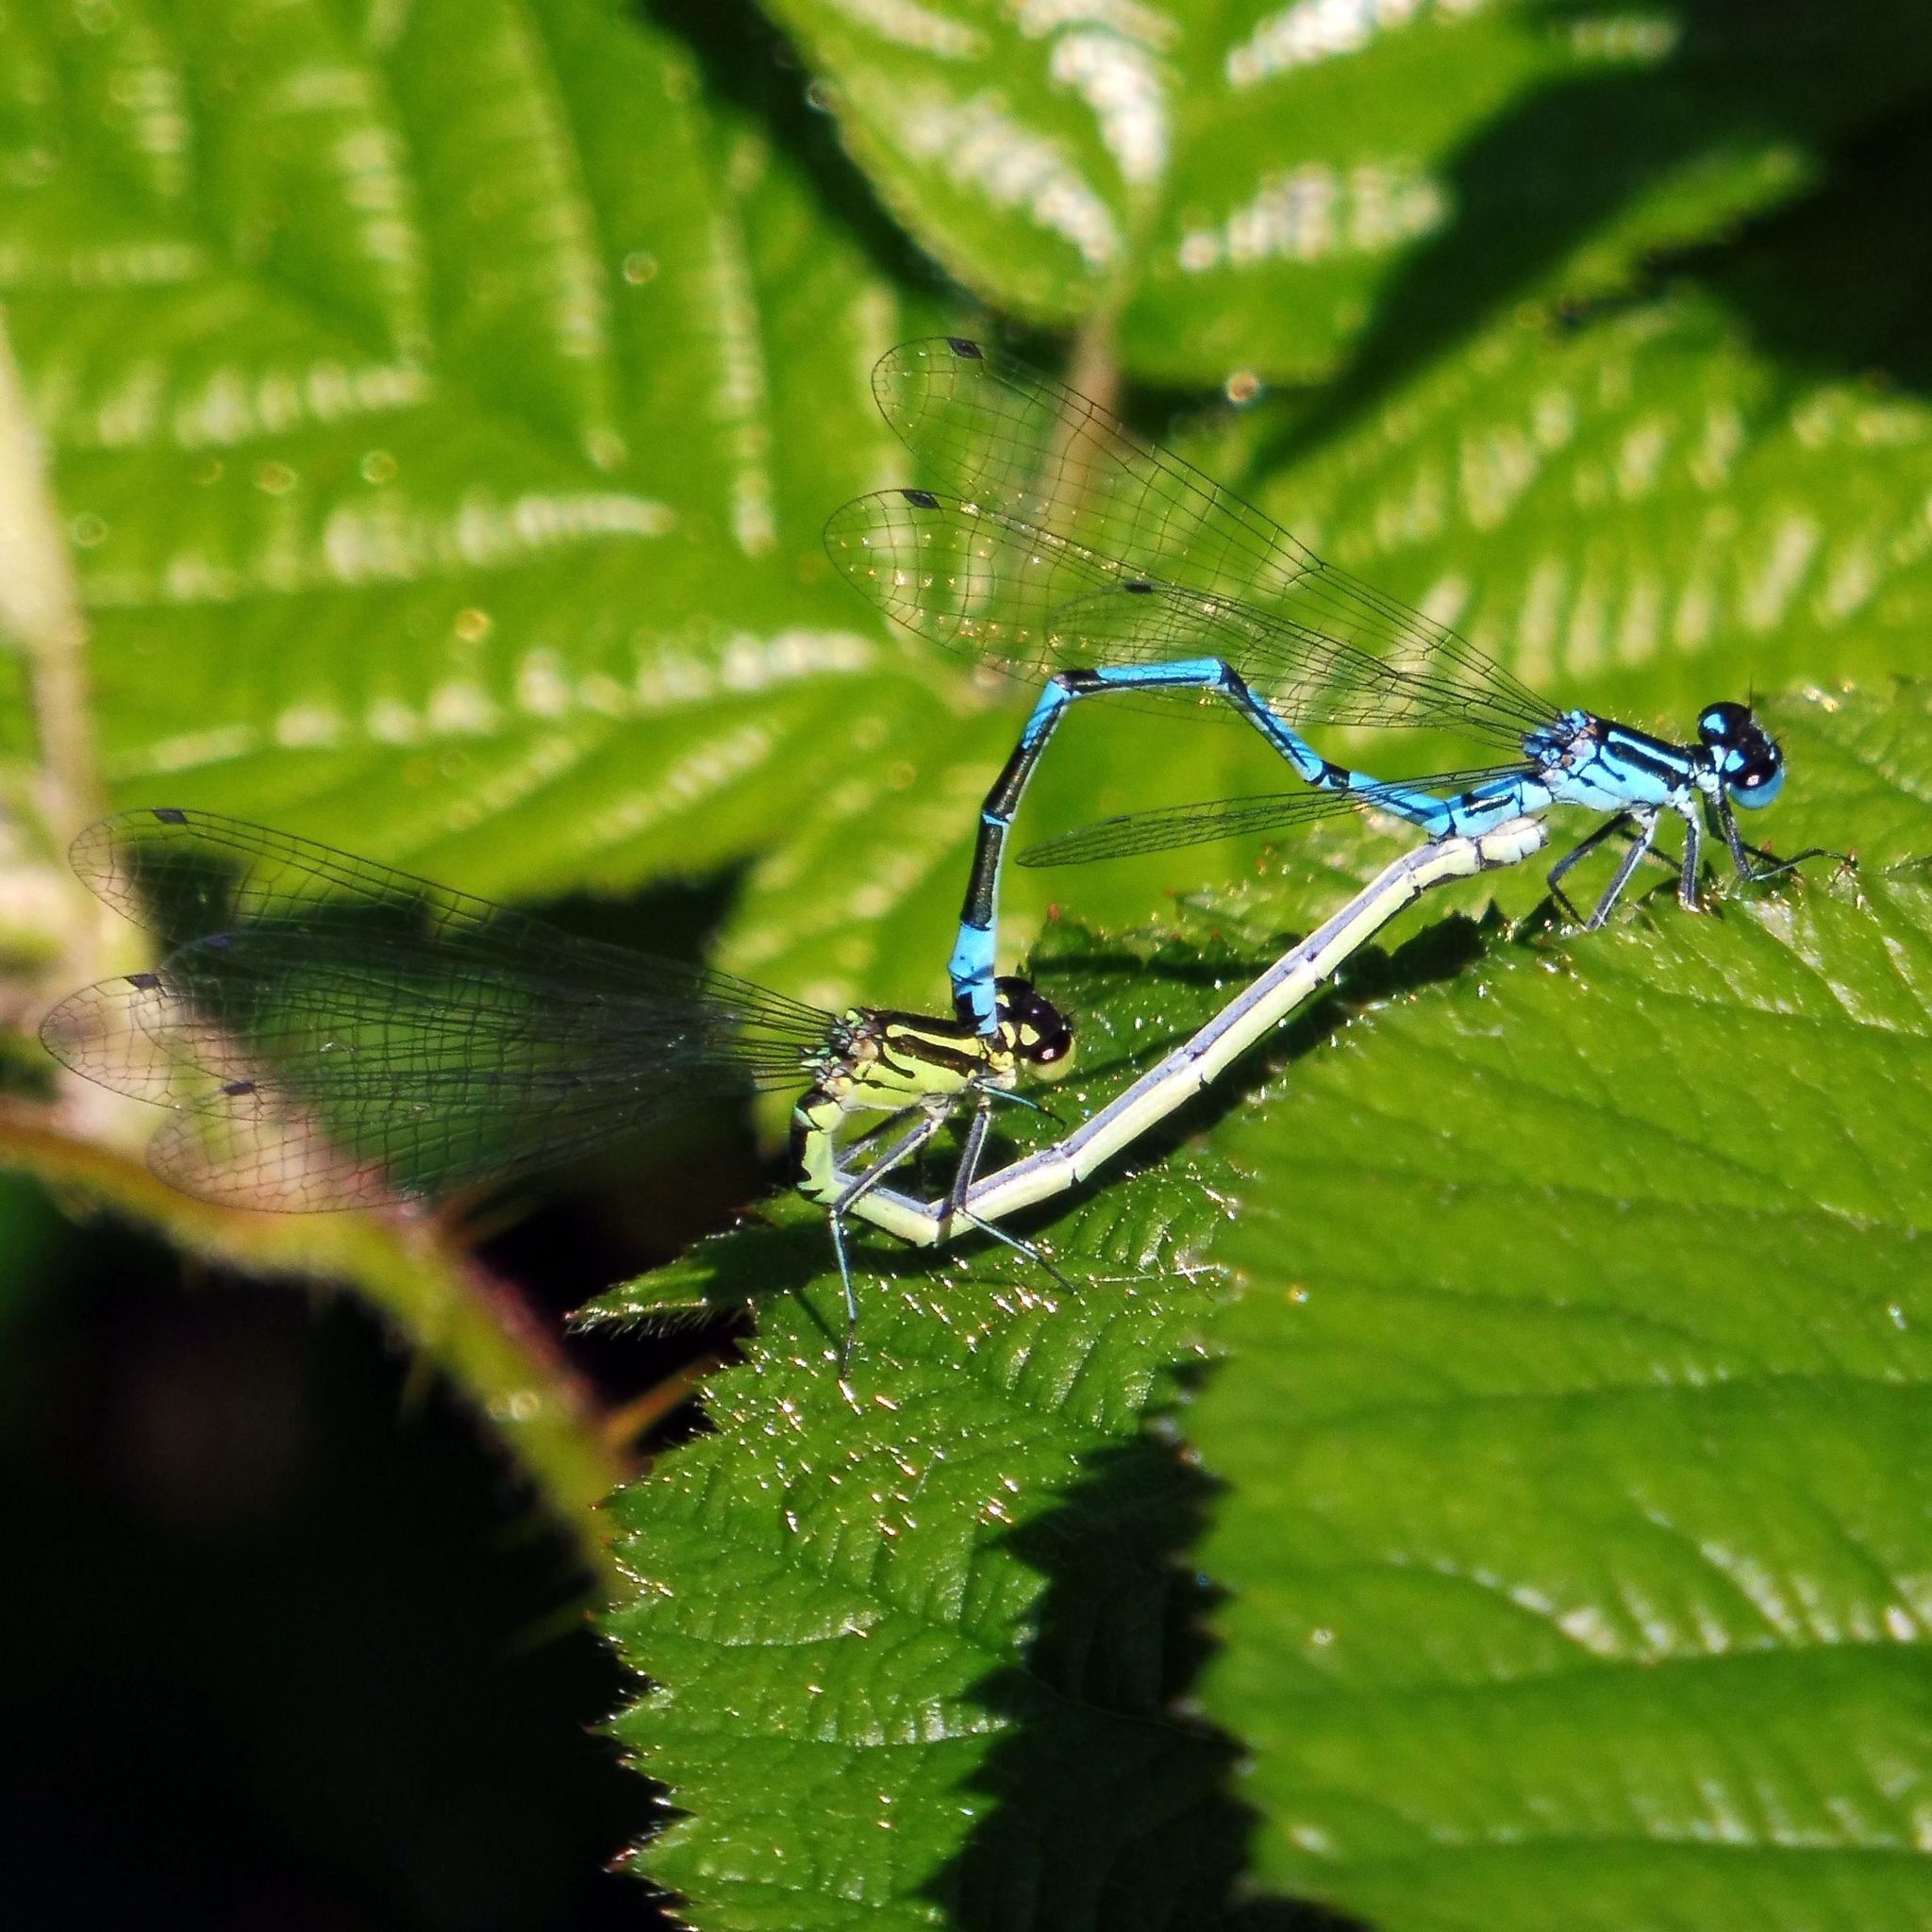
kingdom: Animalia
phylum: Arthropoda
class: Insecta
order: Odonata
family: Coenagrionidae
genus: Coenagrion
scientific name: Coenagrion puella
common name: Azure damselfly
